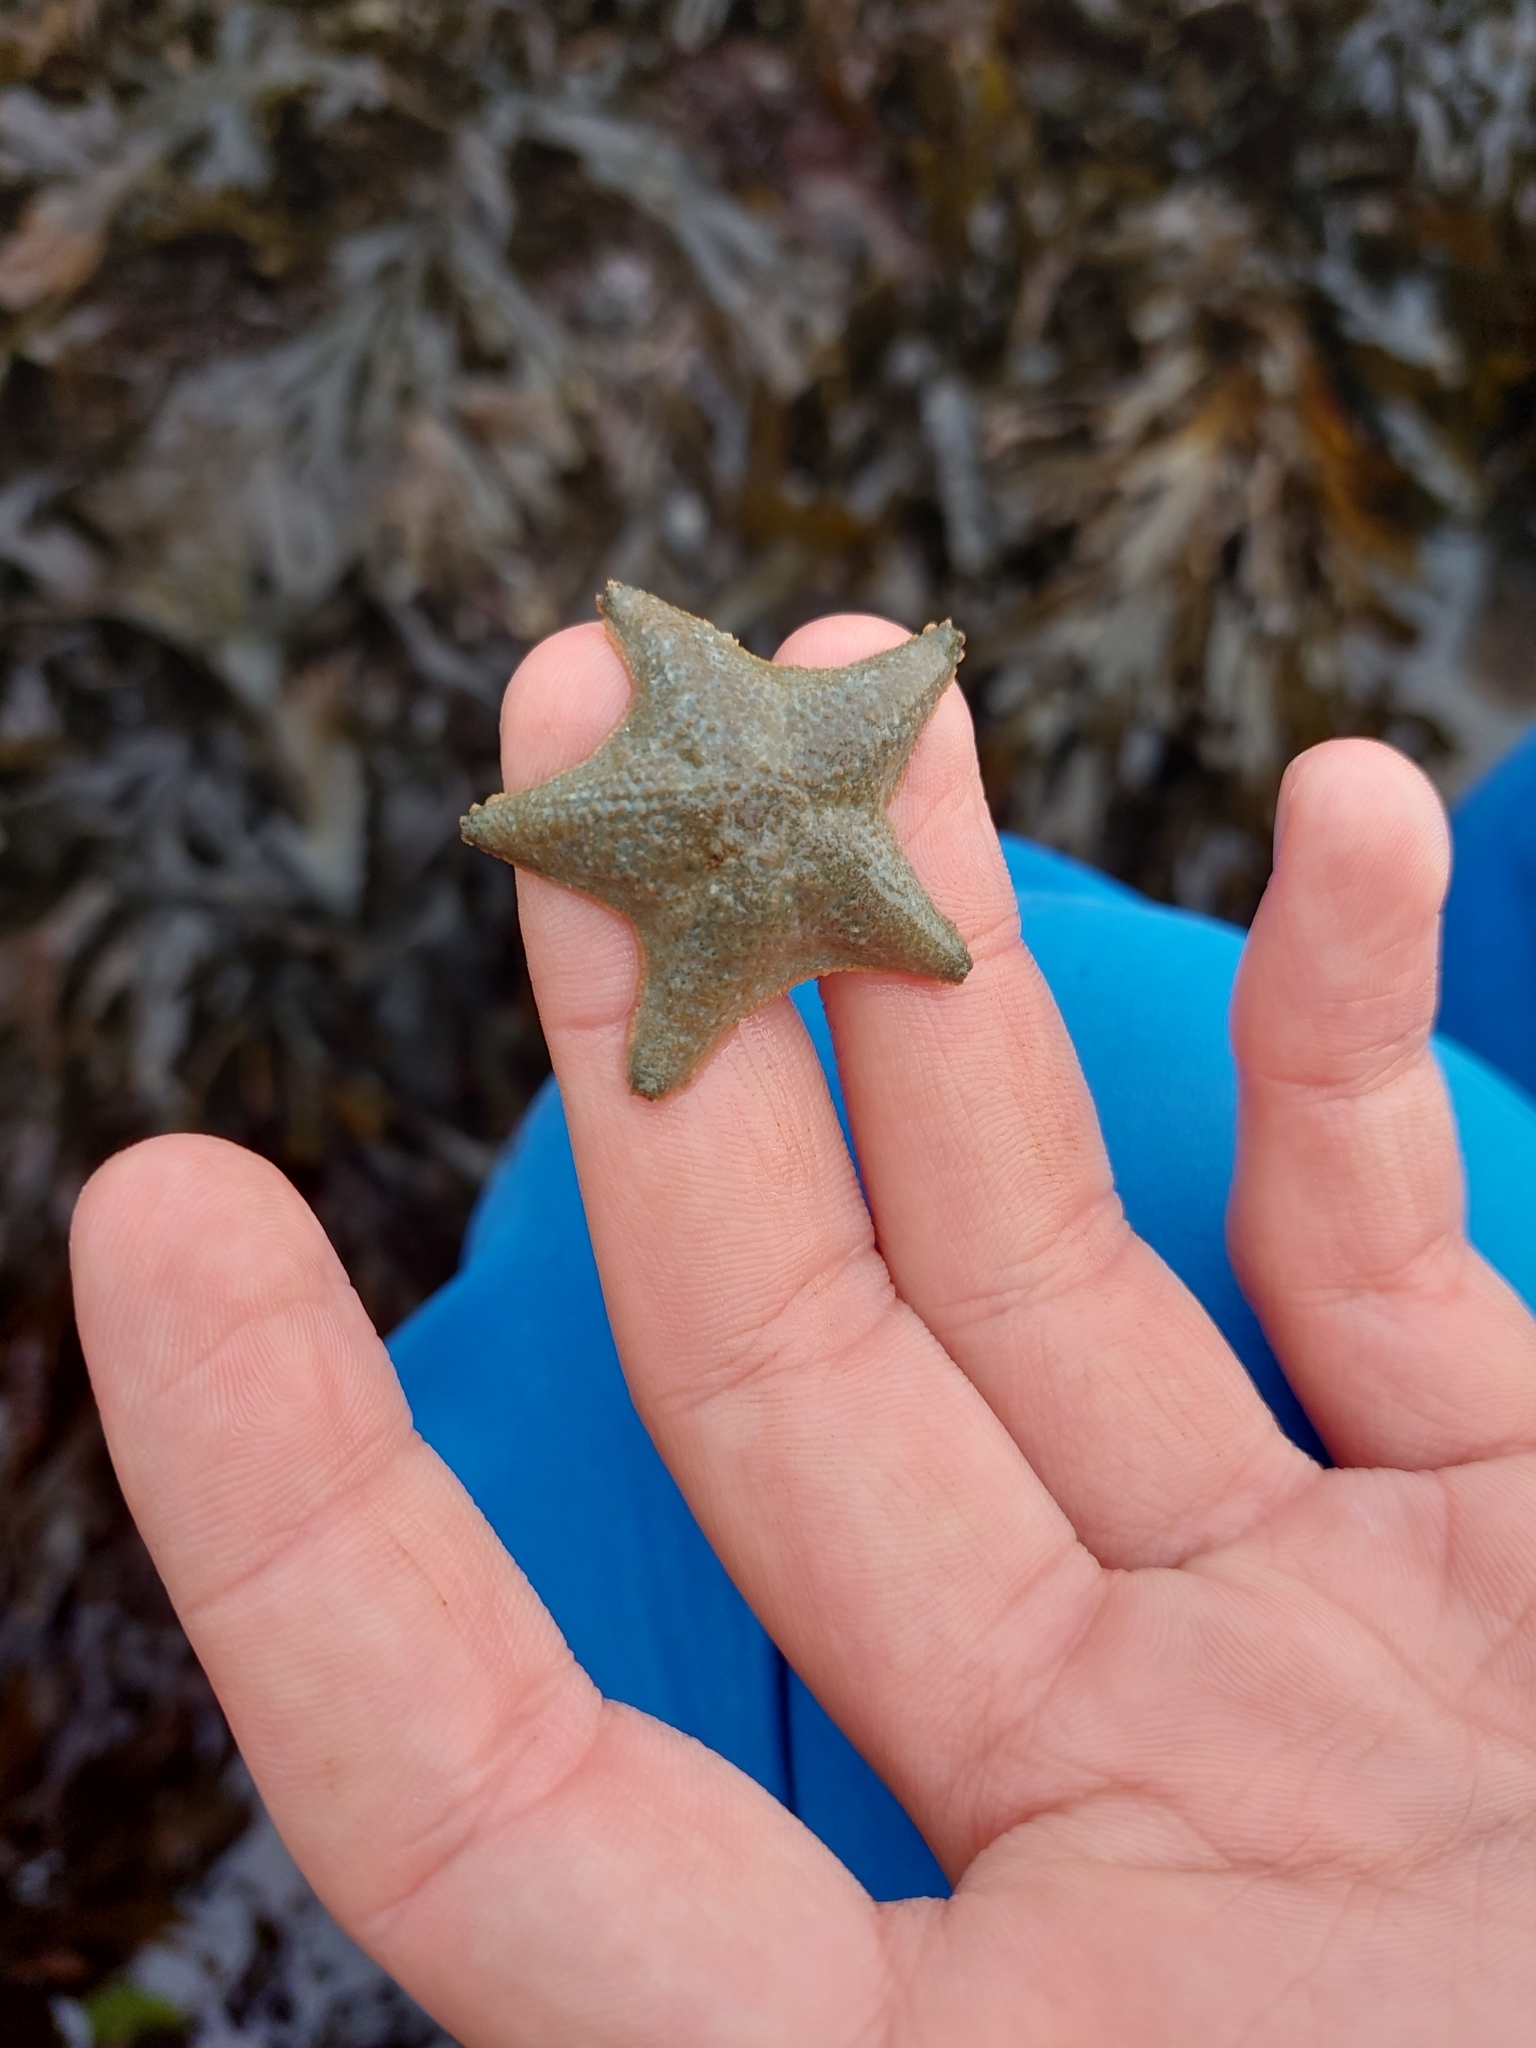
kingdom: Animalia
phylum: Echinodermata
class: Asteroidea
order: Valvatida
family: Asterinidae
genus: Asterina
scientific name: Asterina gibbosa
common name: Cushion star
